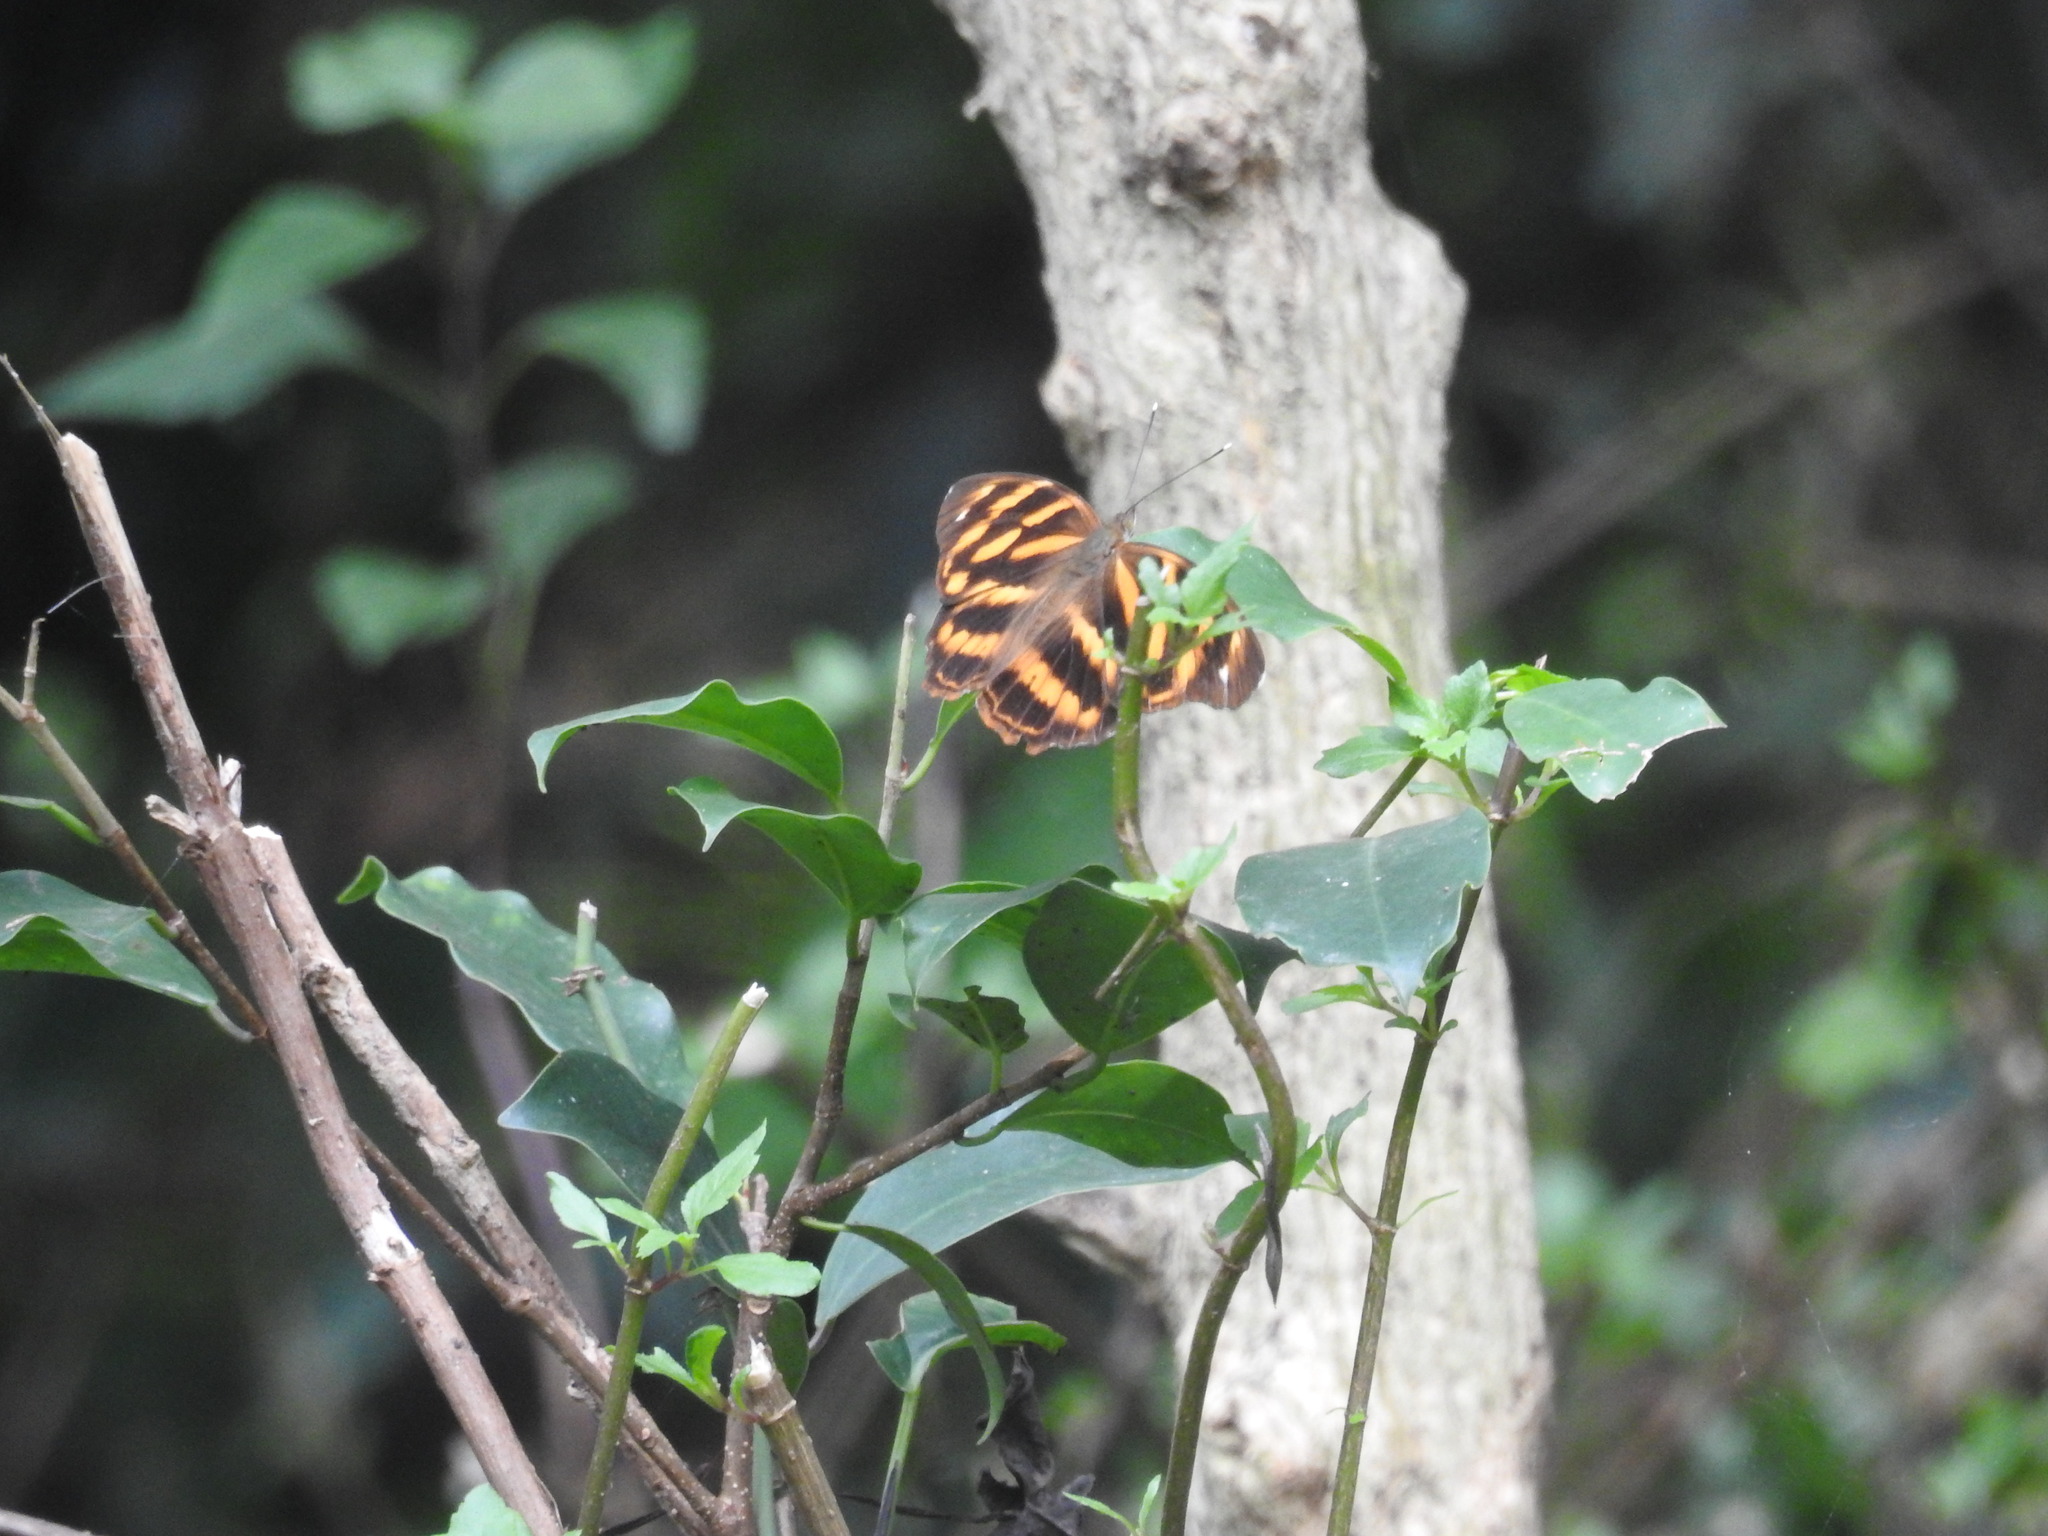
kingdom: Animalia
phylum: Arthropoda
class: Insecta
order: Lepidoptera
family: Nymphalidae
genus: Herona
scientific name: Herona marathus
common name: Yellow pasha
